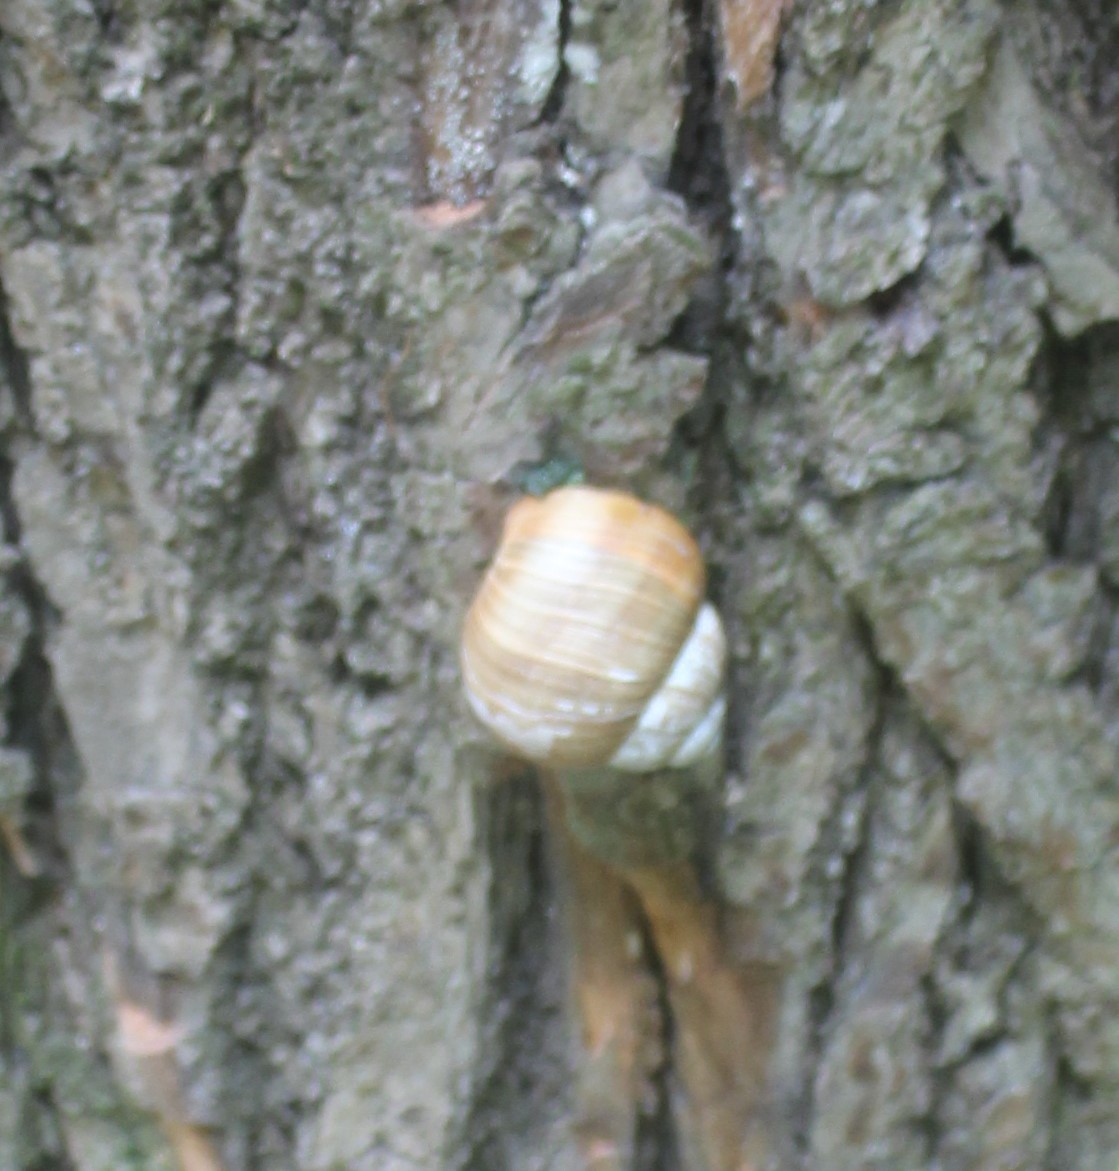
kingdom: Animalia
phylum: Mollusca
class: Gastropoda
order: Stylommatophora
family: Helicidae
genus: Helix
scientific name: Helix pomatia
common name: Roman snail
